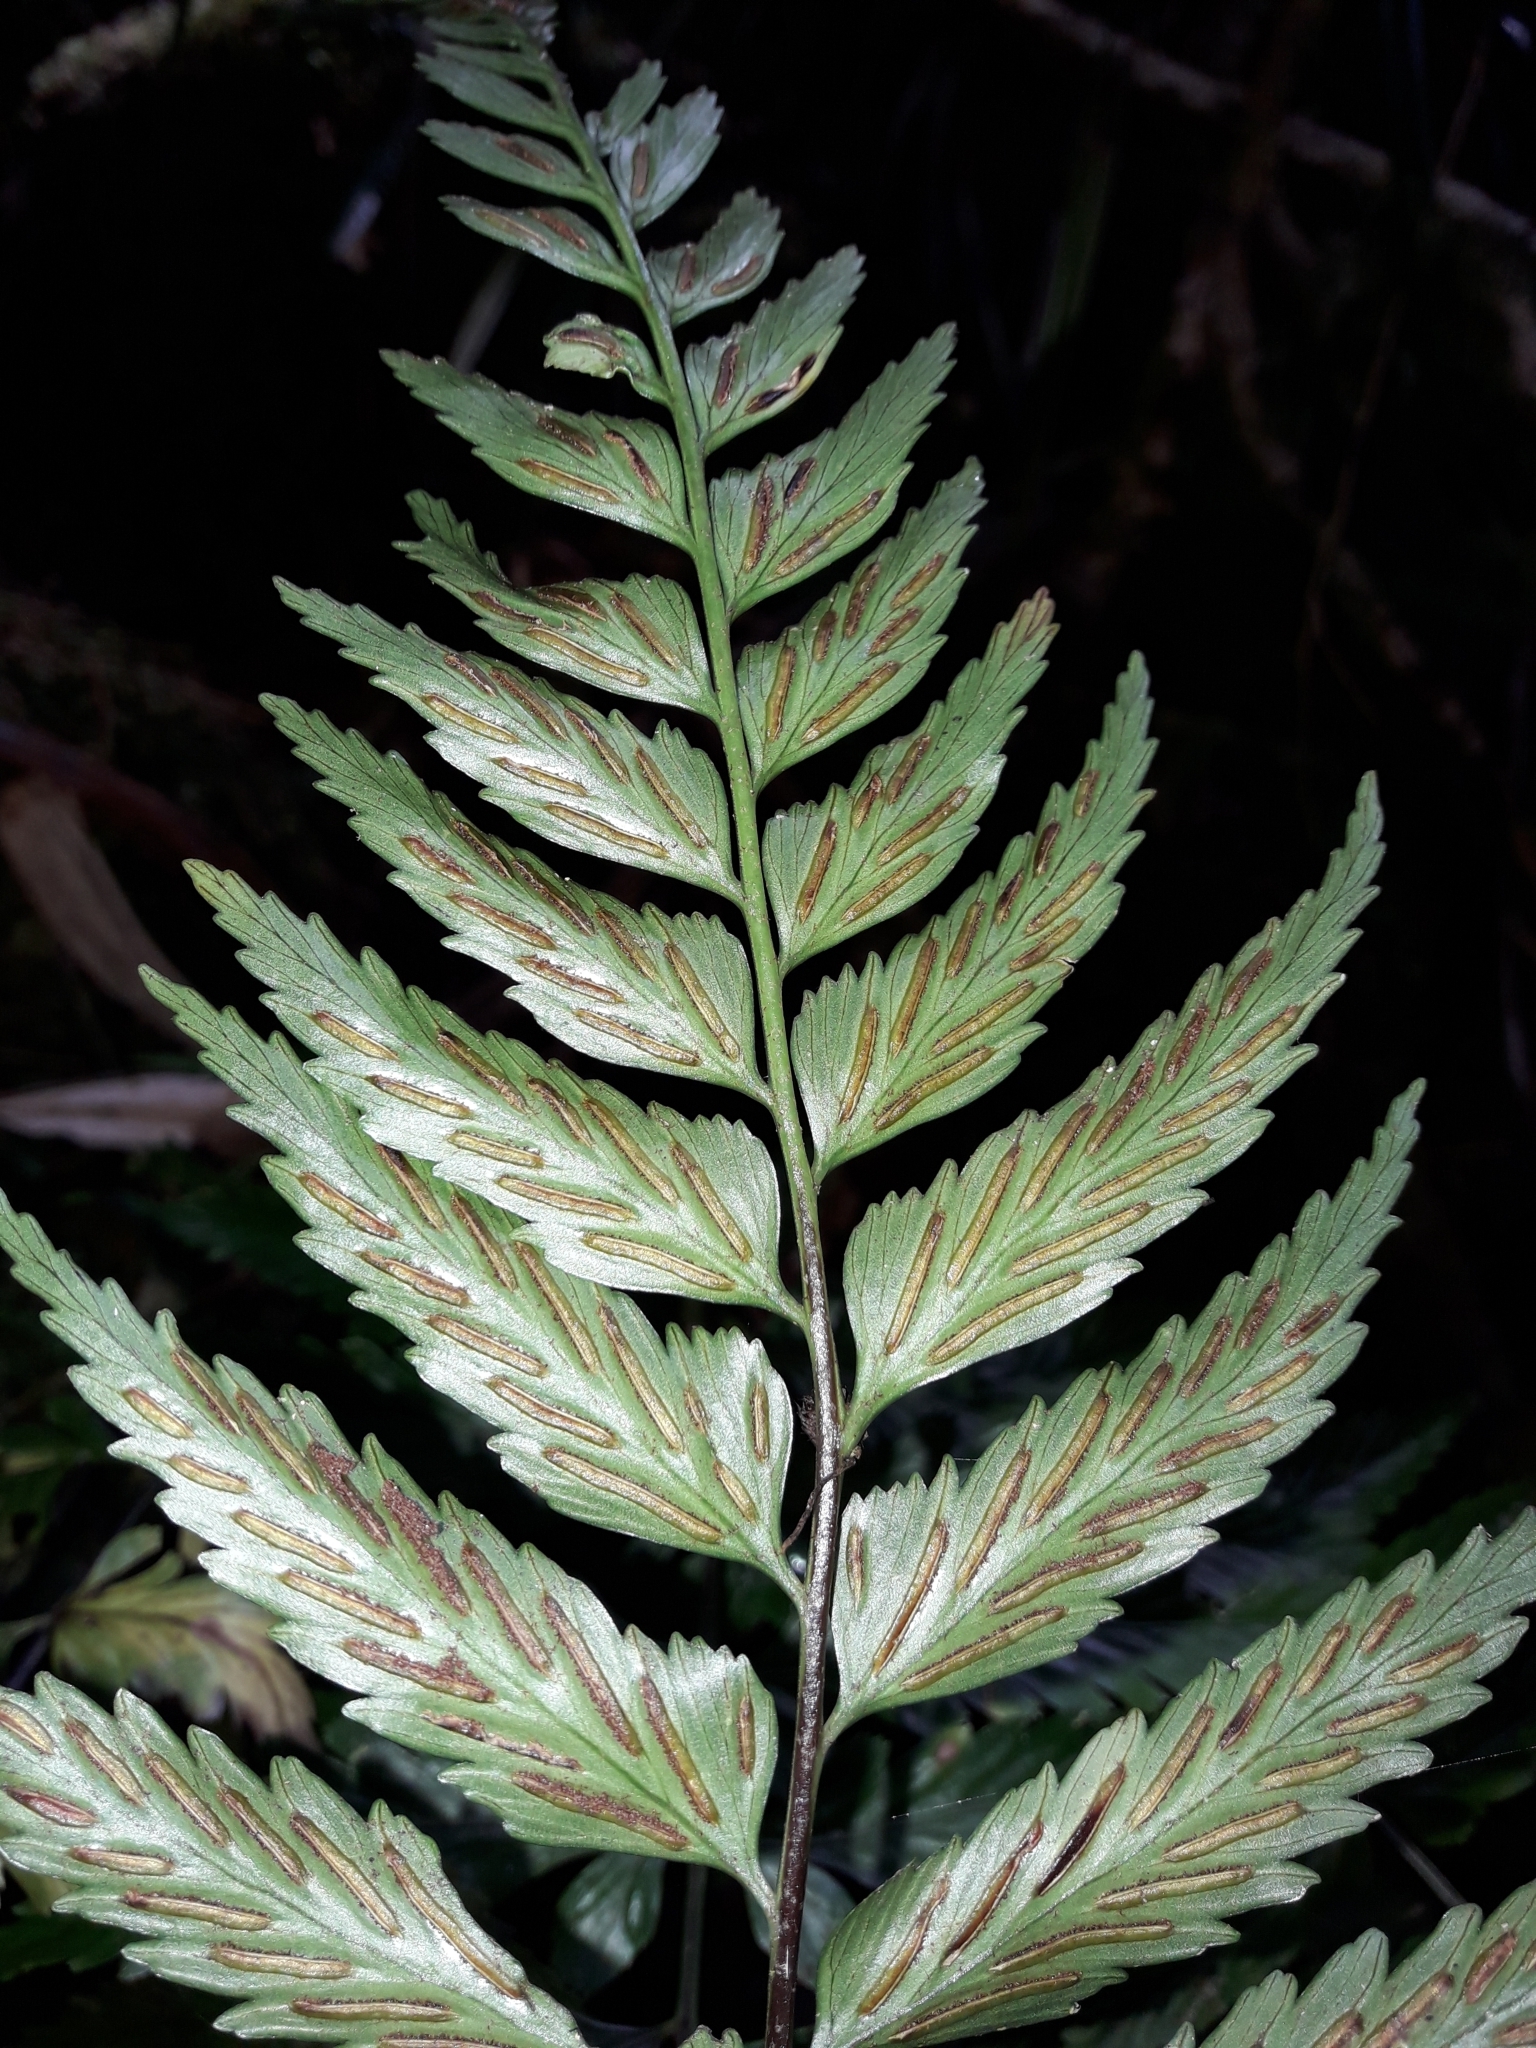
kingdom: Plantae
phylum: Tracheophyta
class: Polypodiopsida
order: Polypodiales
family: Aspleniaceae
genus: Asplenium
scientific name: Asplenium lobulatum
